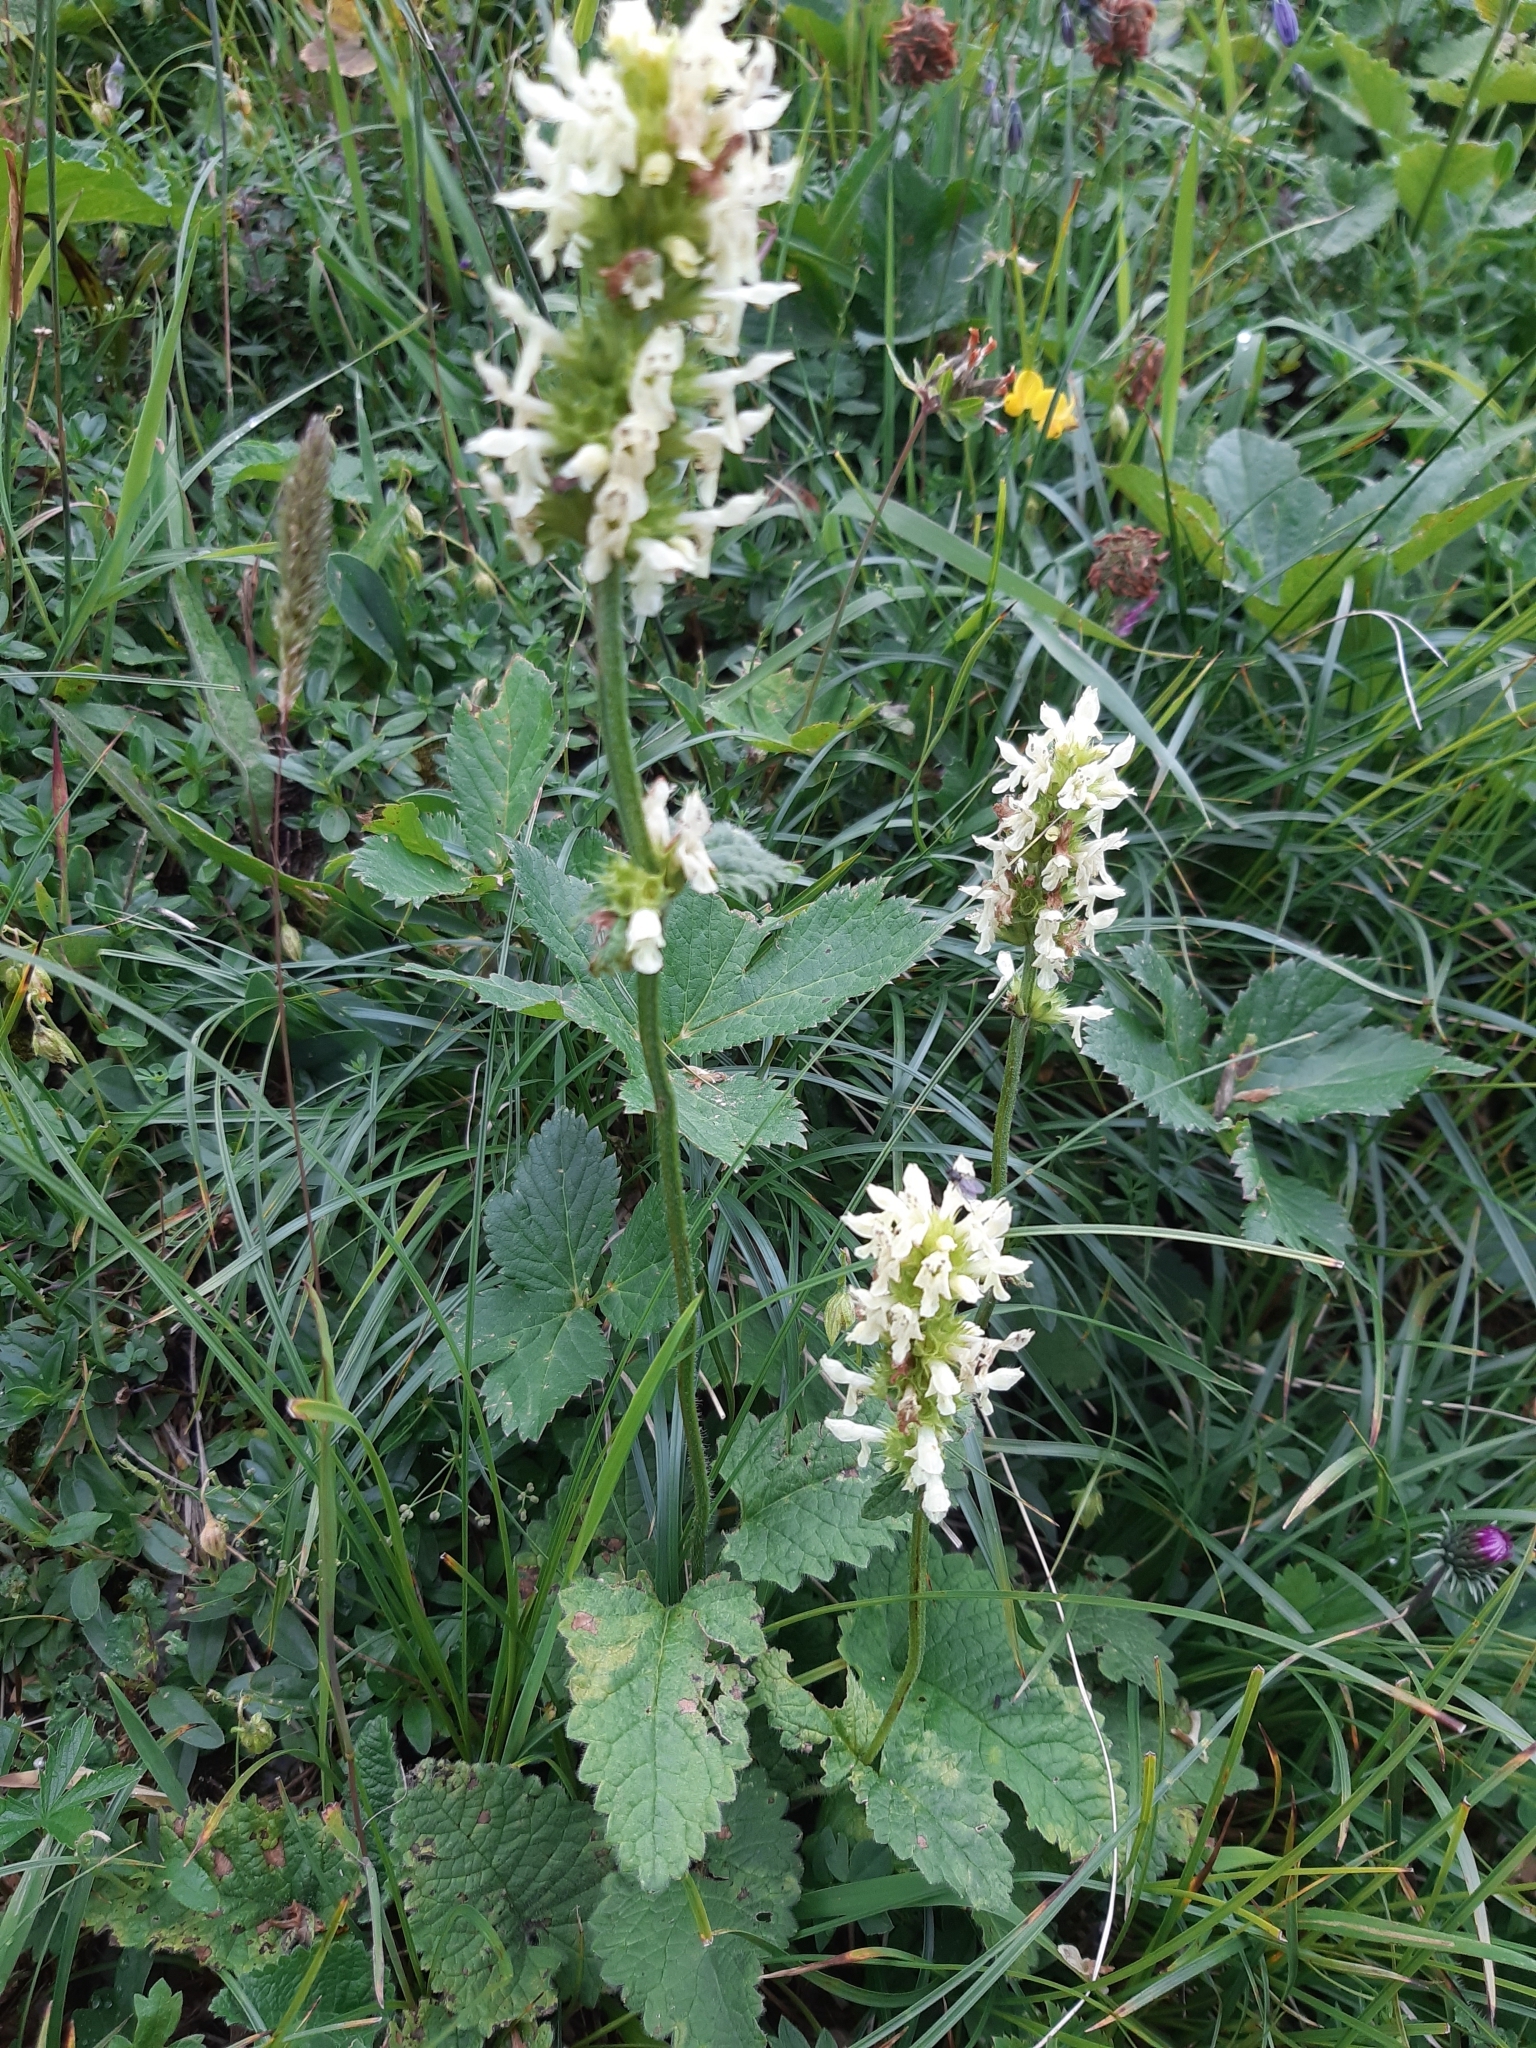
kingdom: Plantae
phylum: Tracheophyta
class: Magnoliopsida
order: Lamiales
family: Lamiaceae
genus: Betonica
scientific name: Betonica alopecuros
